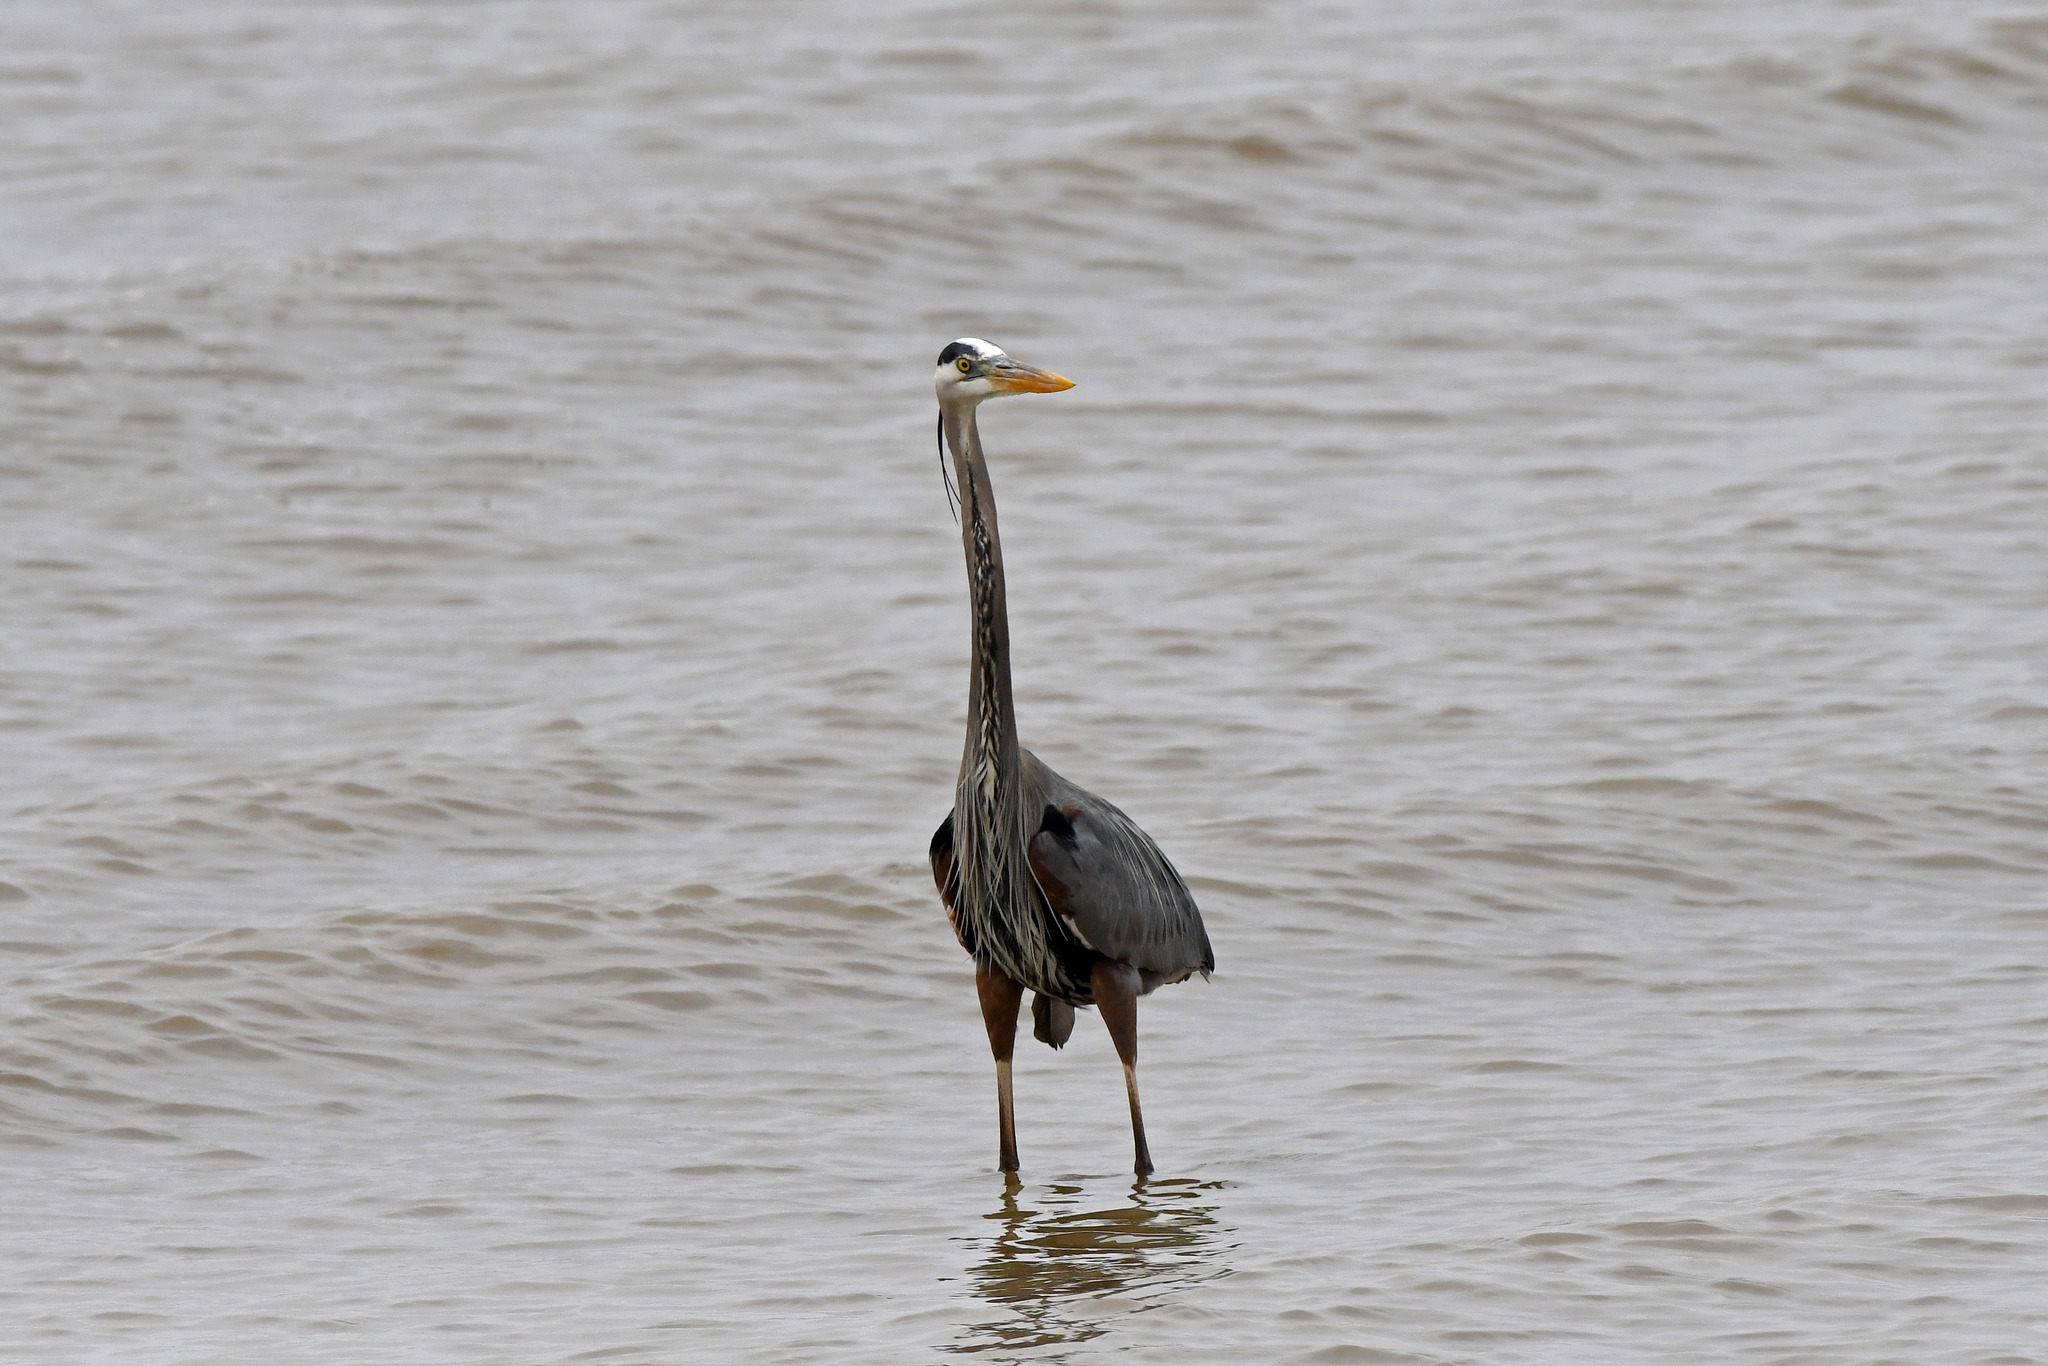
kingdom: Animalia
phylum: Chordata
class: Aves
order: Pelecaniformes
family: Ardeidae
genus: Ardea
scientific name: Ardea herodias
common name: Great blue heron
